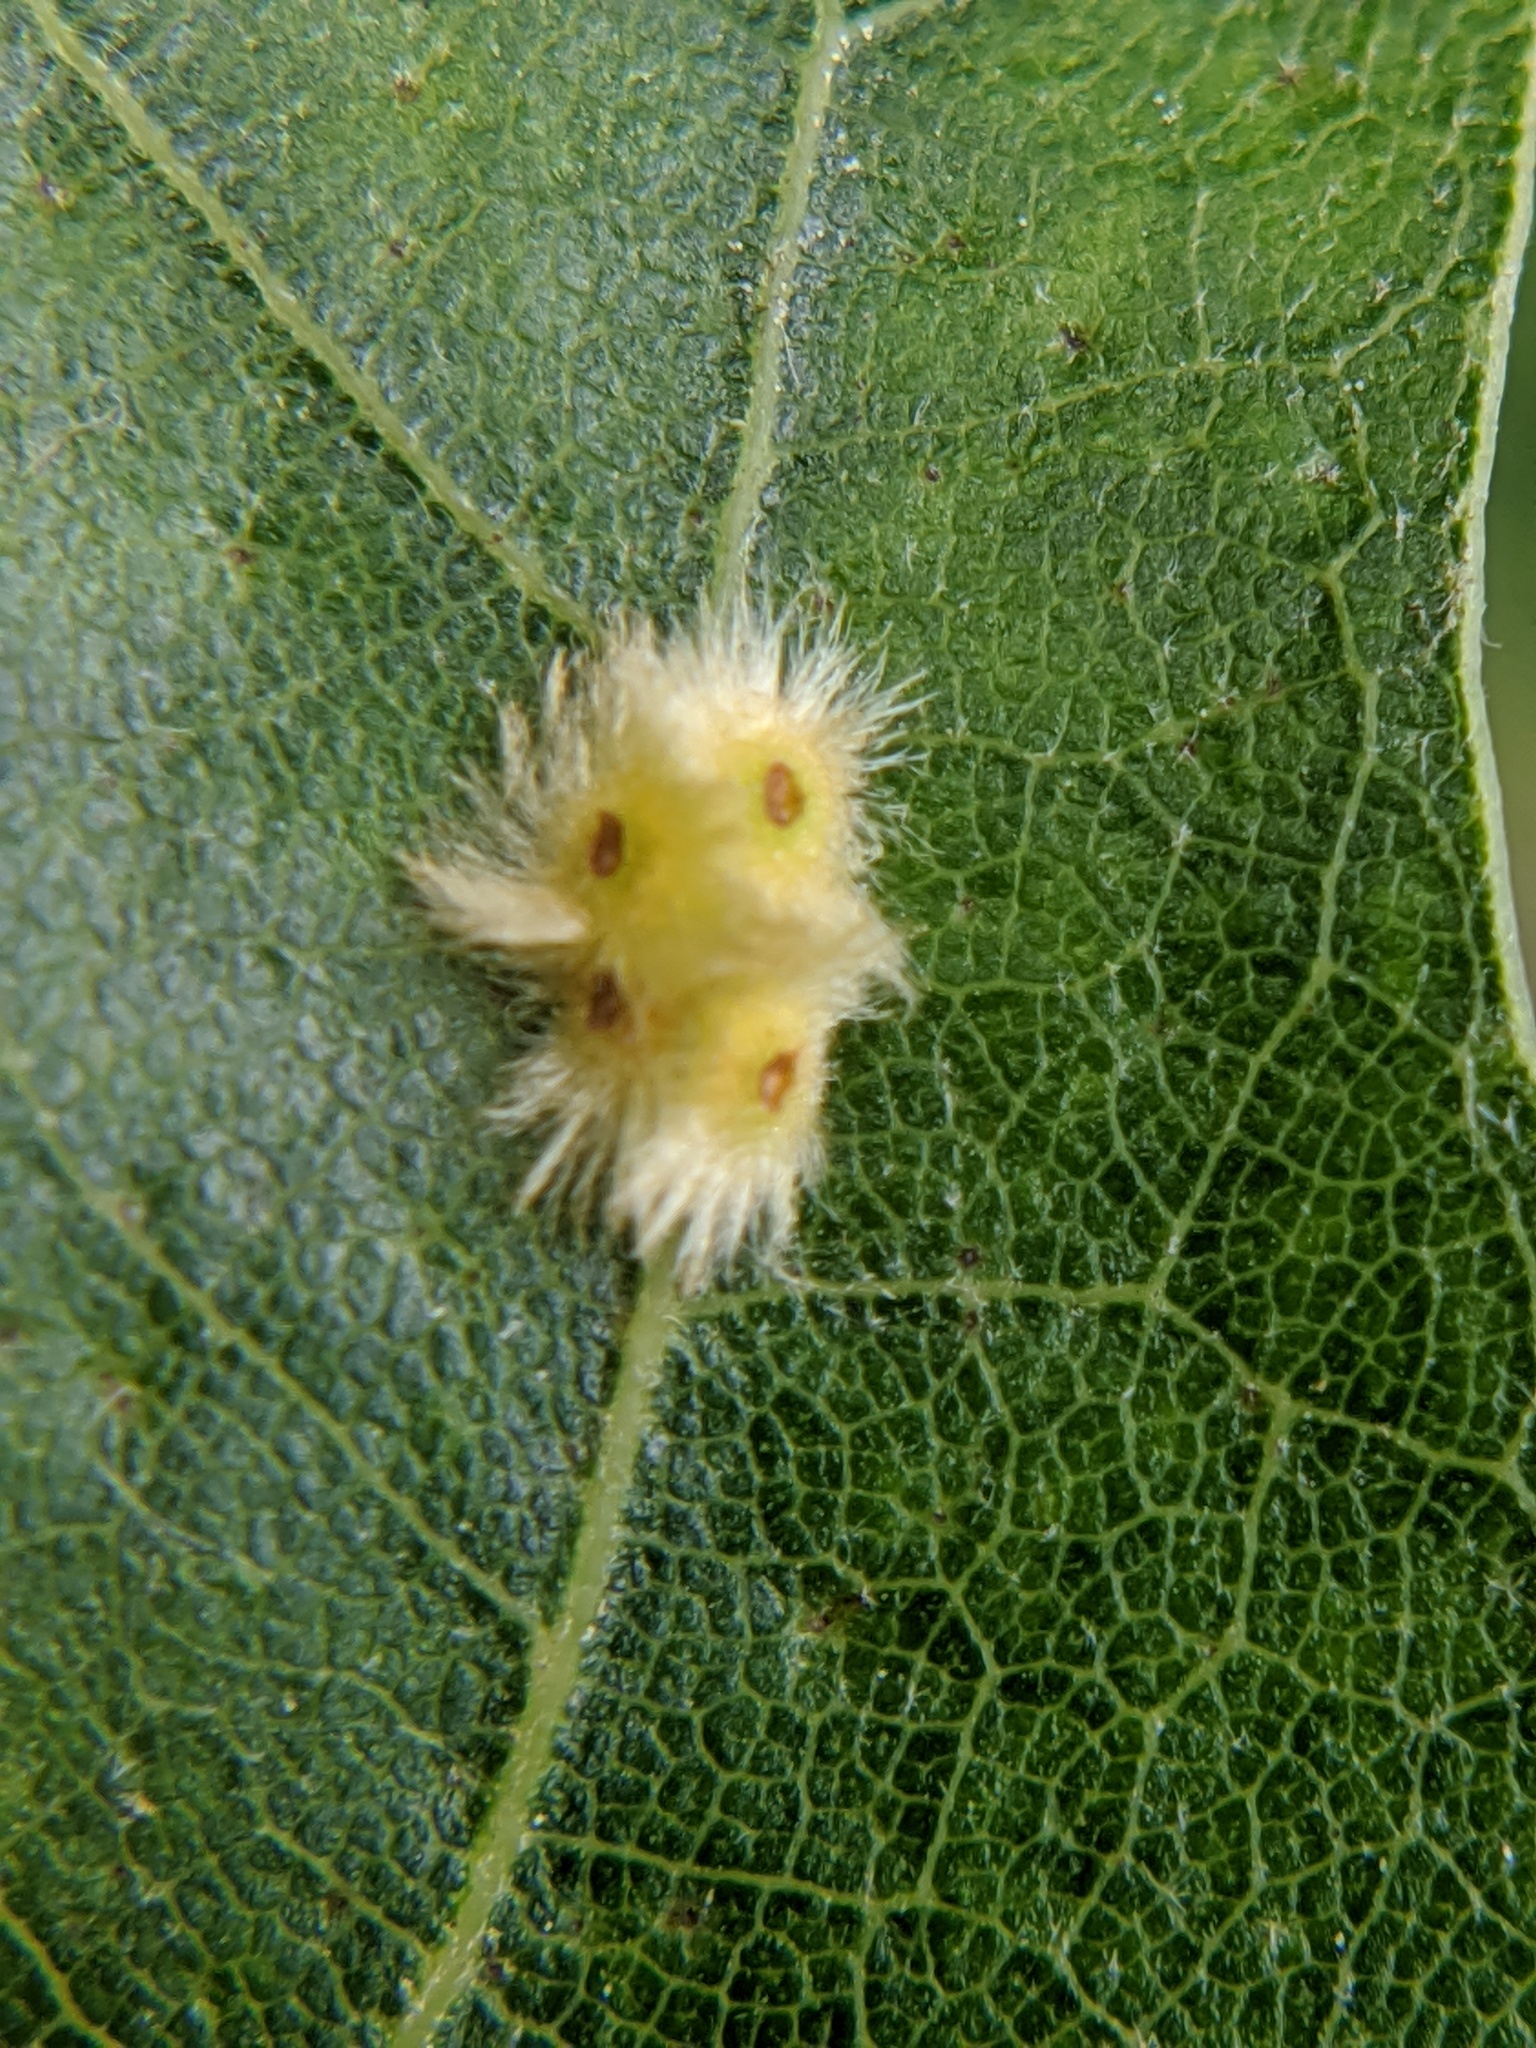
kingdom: Animalia
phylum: Arthropoda
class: Insecta
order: Hymenoptera
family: Cynipidae
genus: Callirhytis
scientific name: Callirhytis
